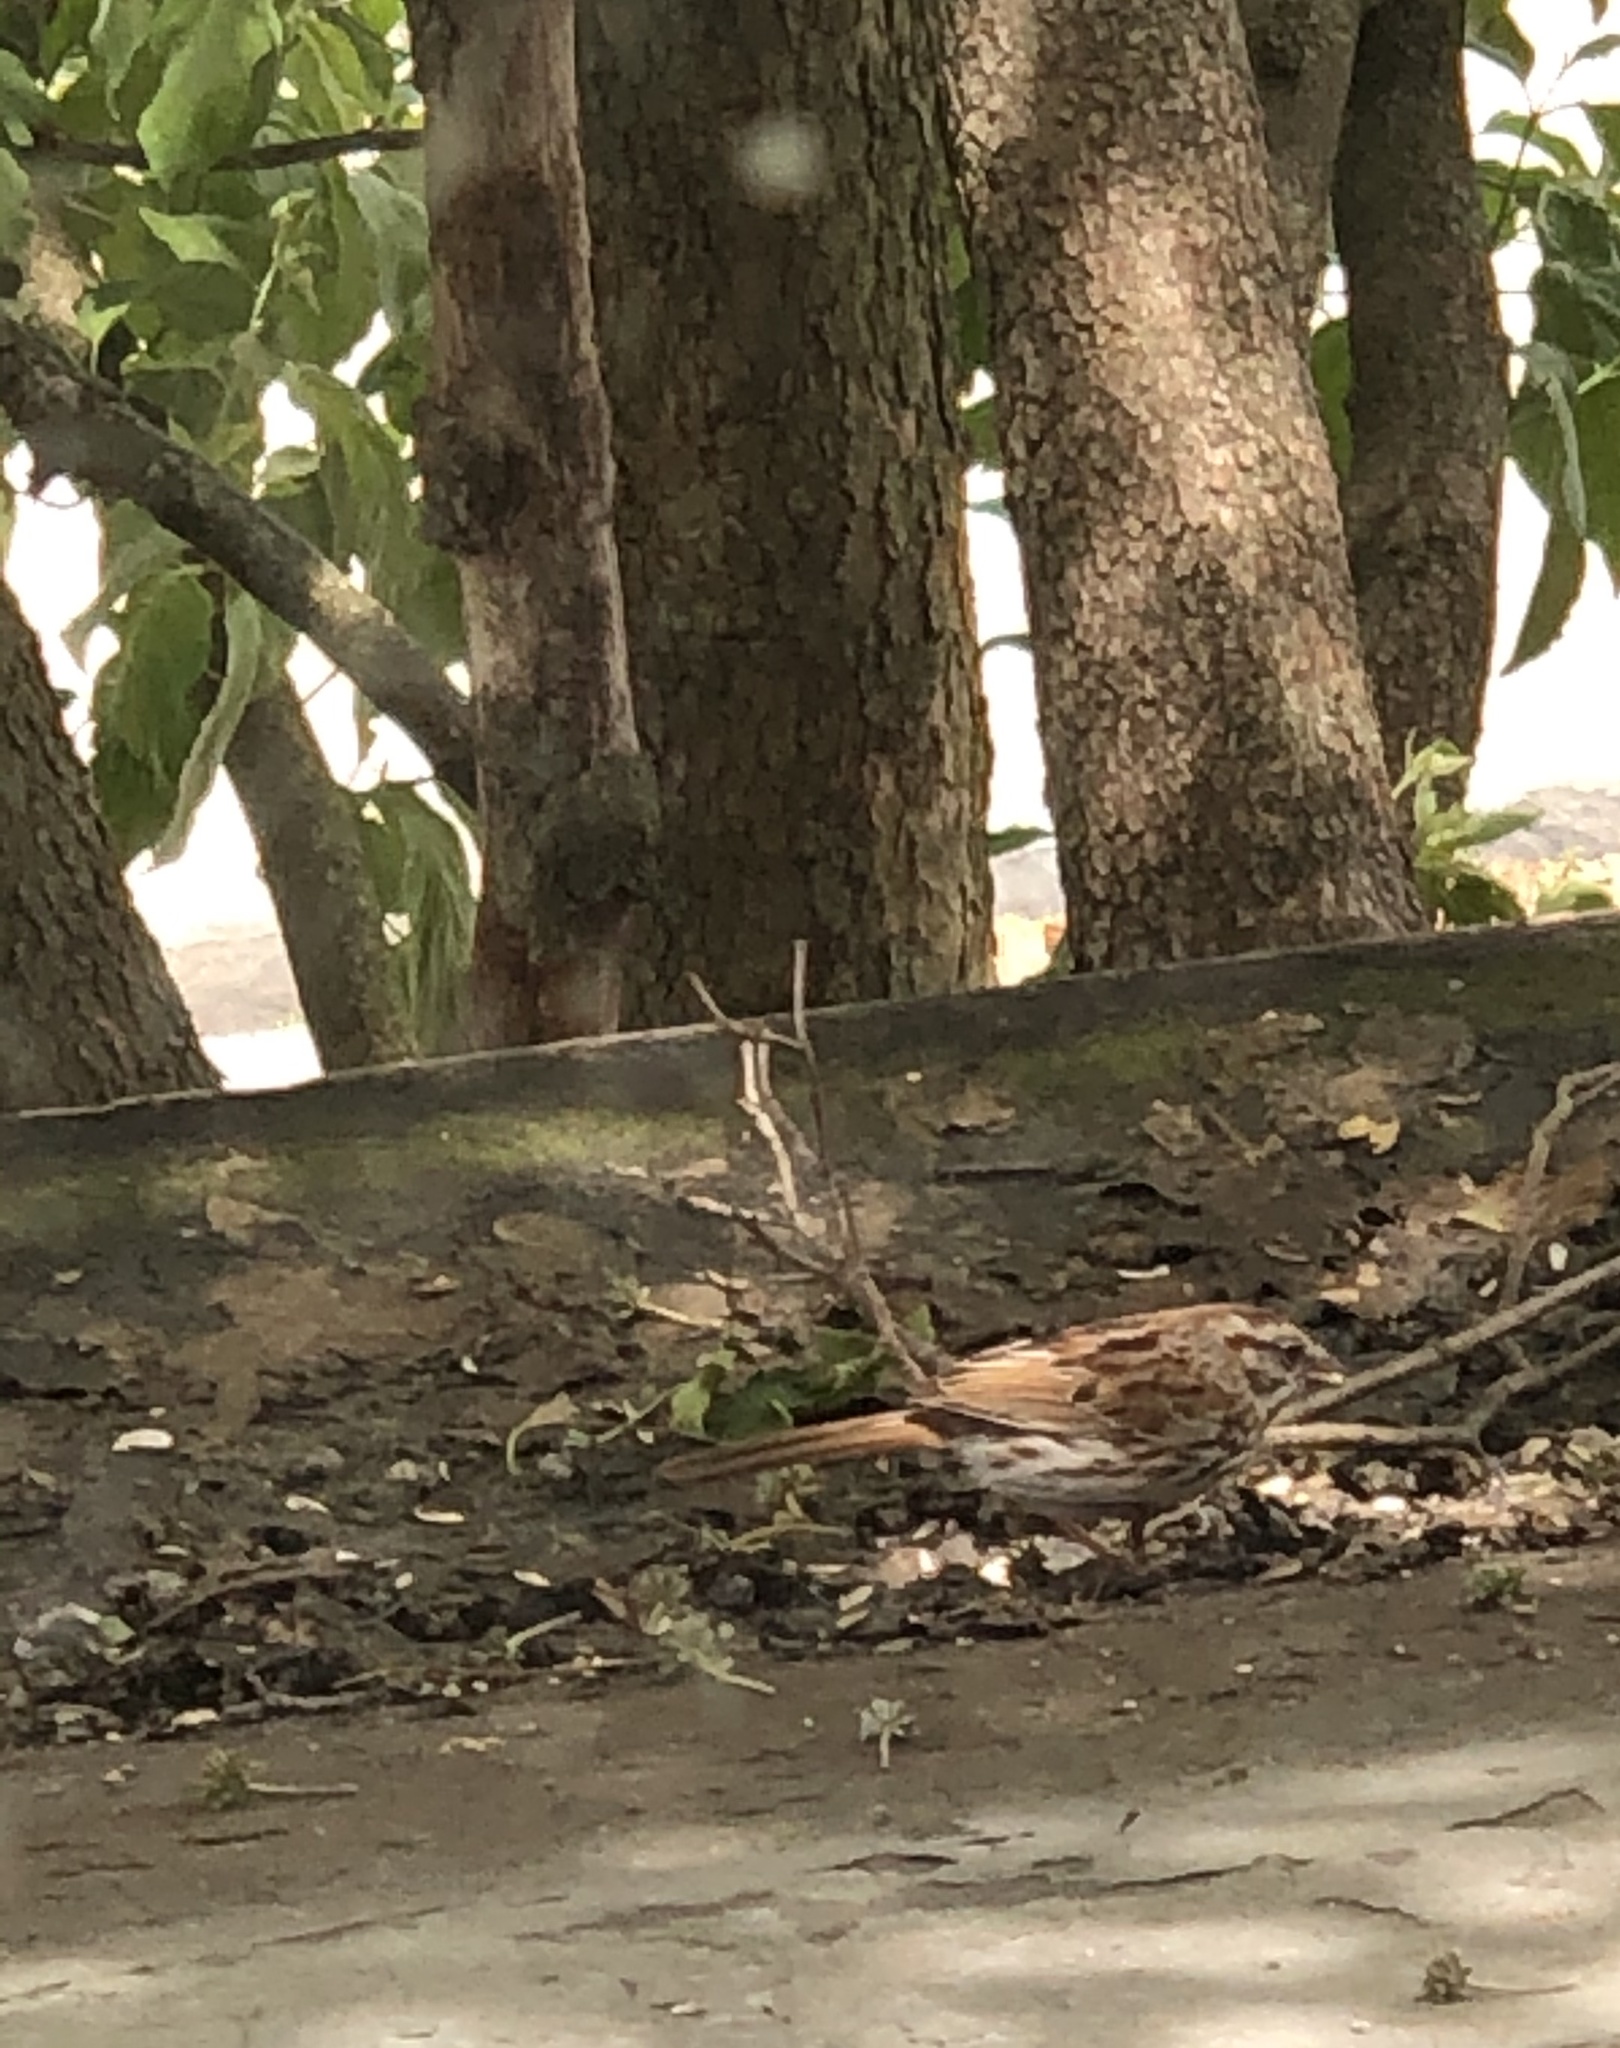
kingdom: Animalia
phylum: Chordata
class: Aves
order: Passeriformes
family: Passerellidae
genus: Melospiza
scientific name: Melospiza melodia
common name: Song sparrow
